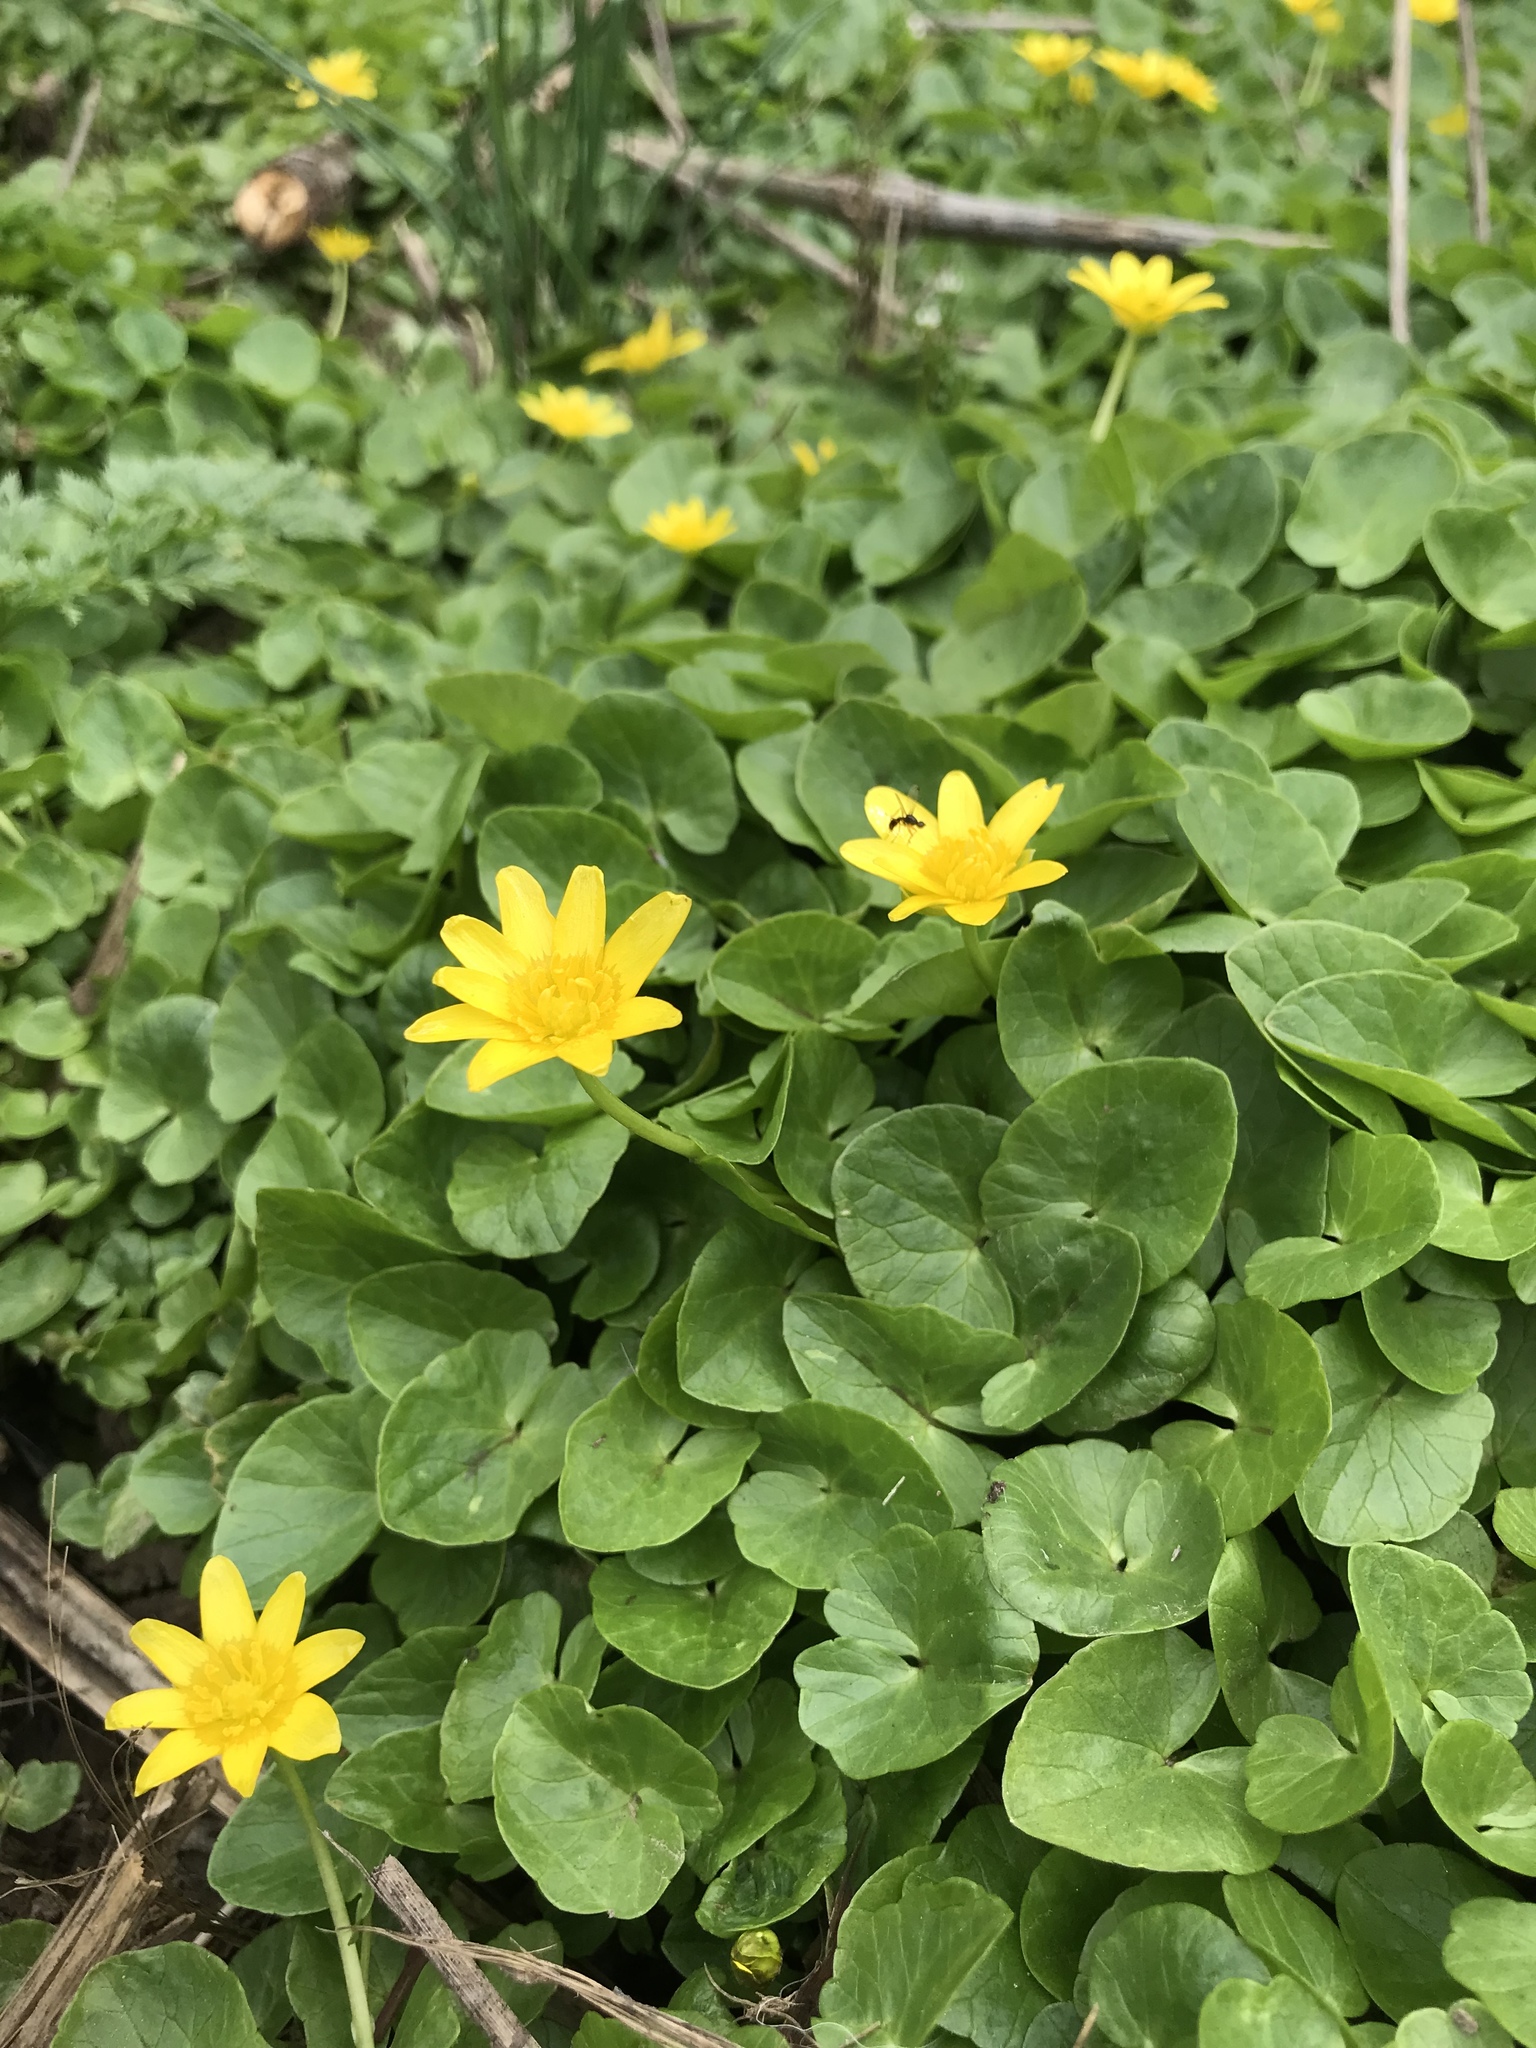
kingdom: Plantae
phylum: Tracheophyta
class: Magnoliopsida
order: Ranunculales
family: Ranunculaceae
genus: Ficaria
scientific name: Ficaria verna
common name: Lesser celandine
